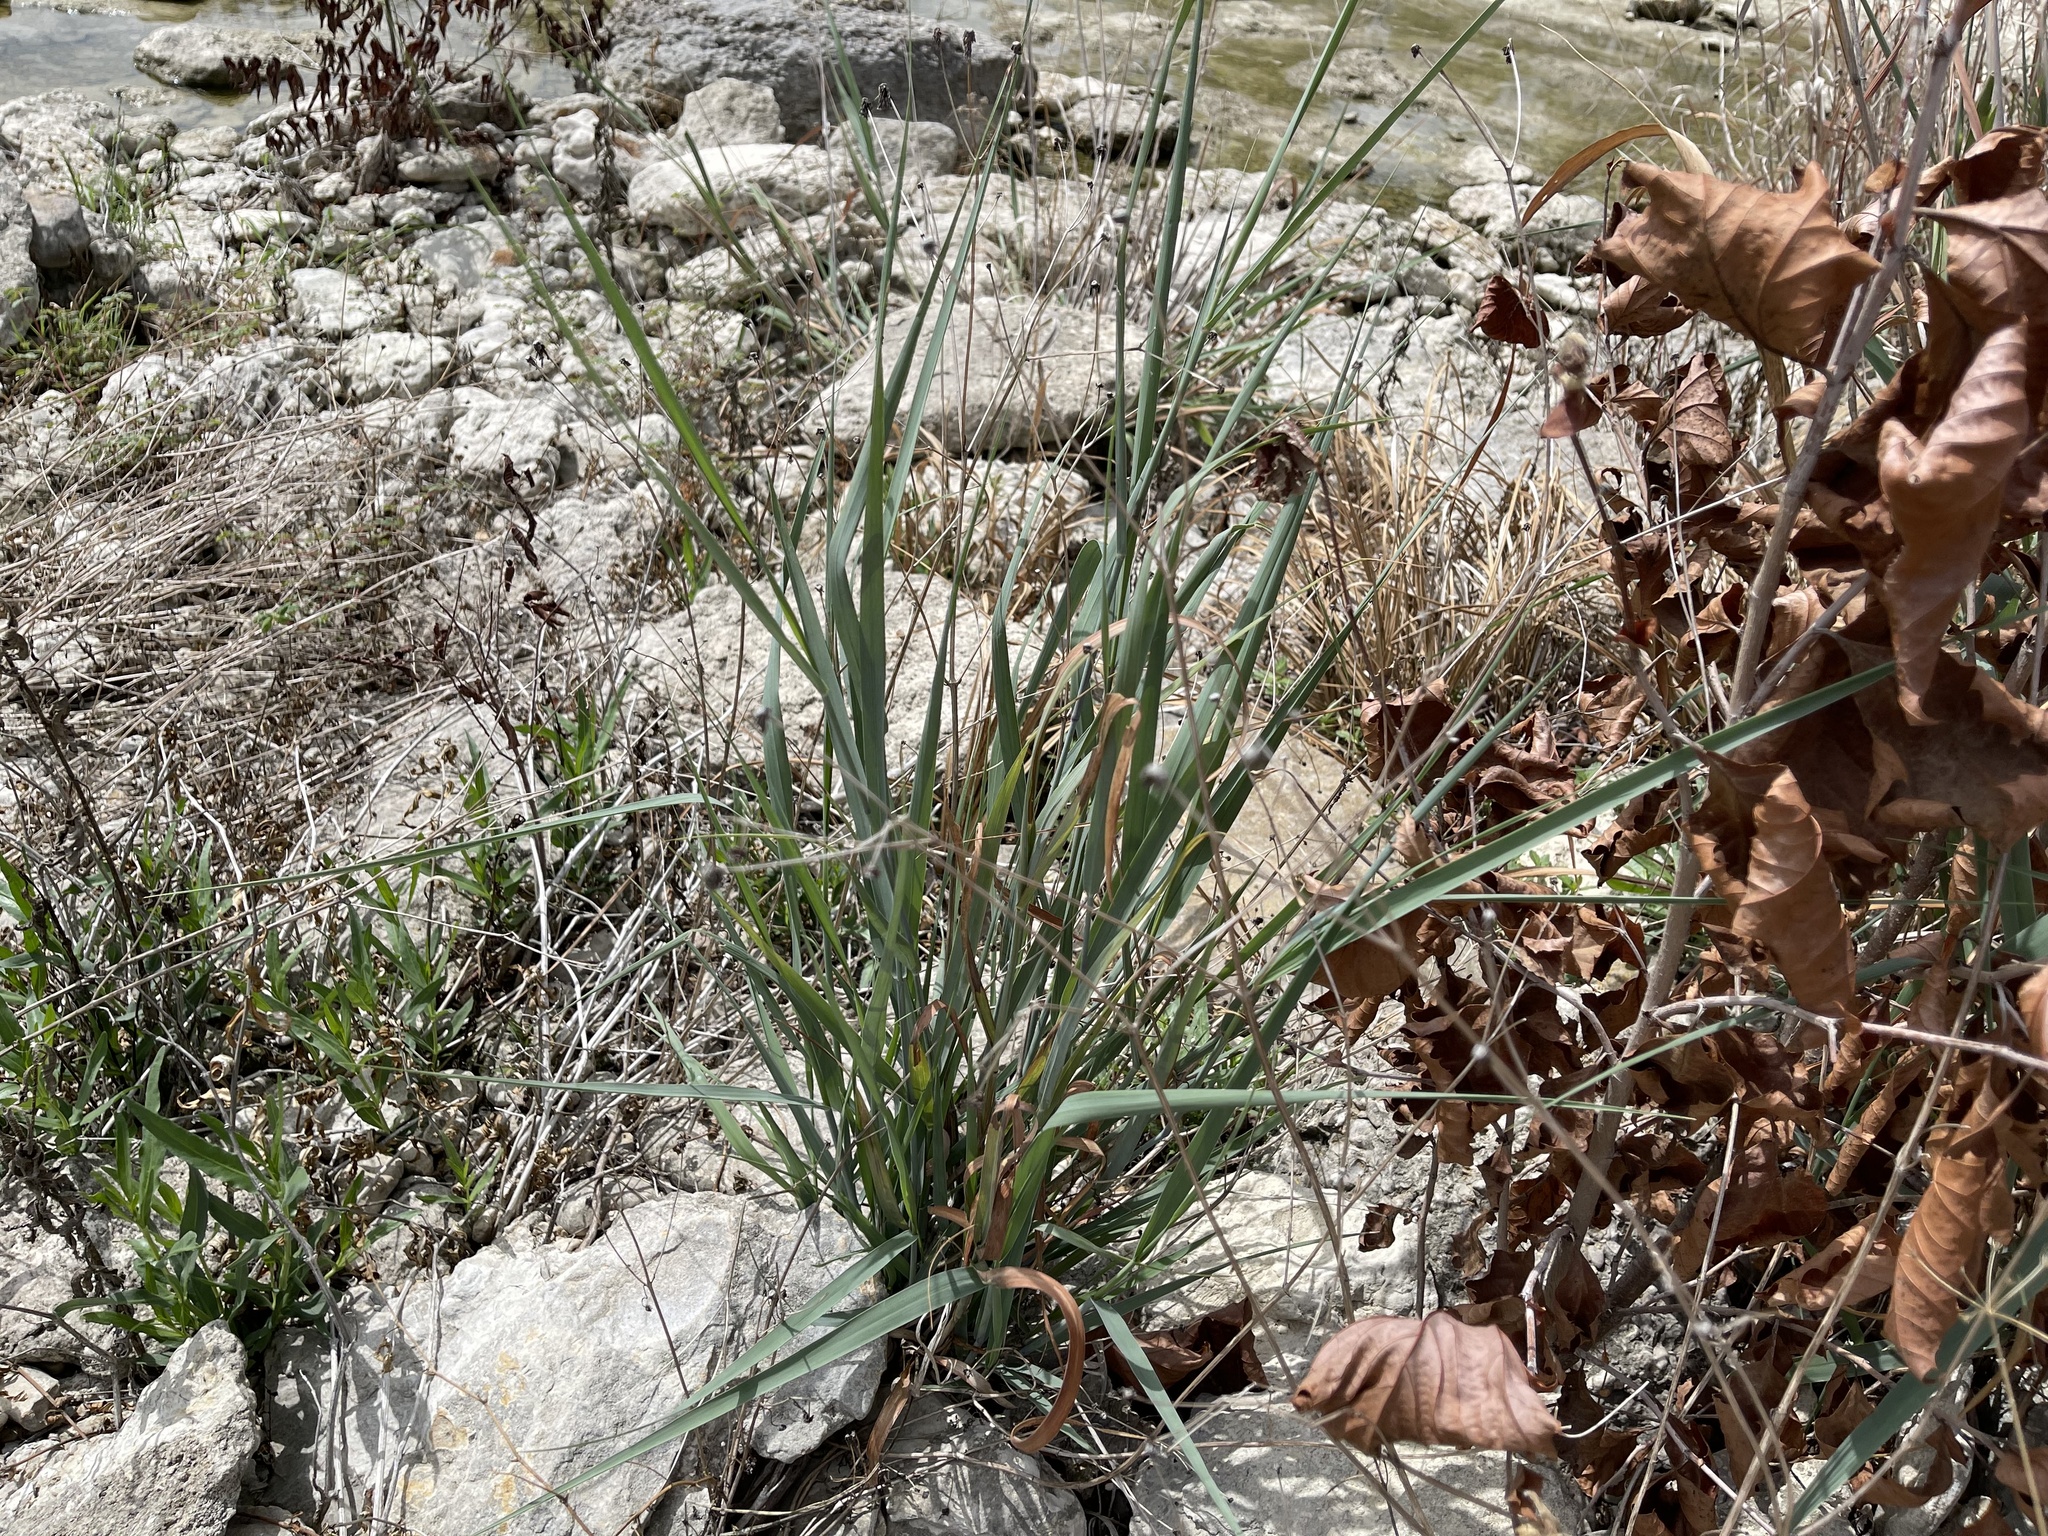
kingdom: Plantae
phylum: Tracheophyta
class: Liliopsida
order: Poales
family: Poaceae
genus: Panicum
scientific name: Panicum virgatum
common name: Switchgrass
